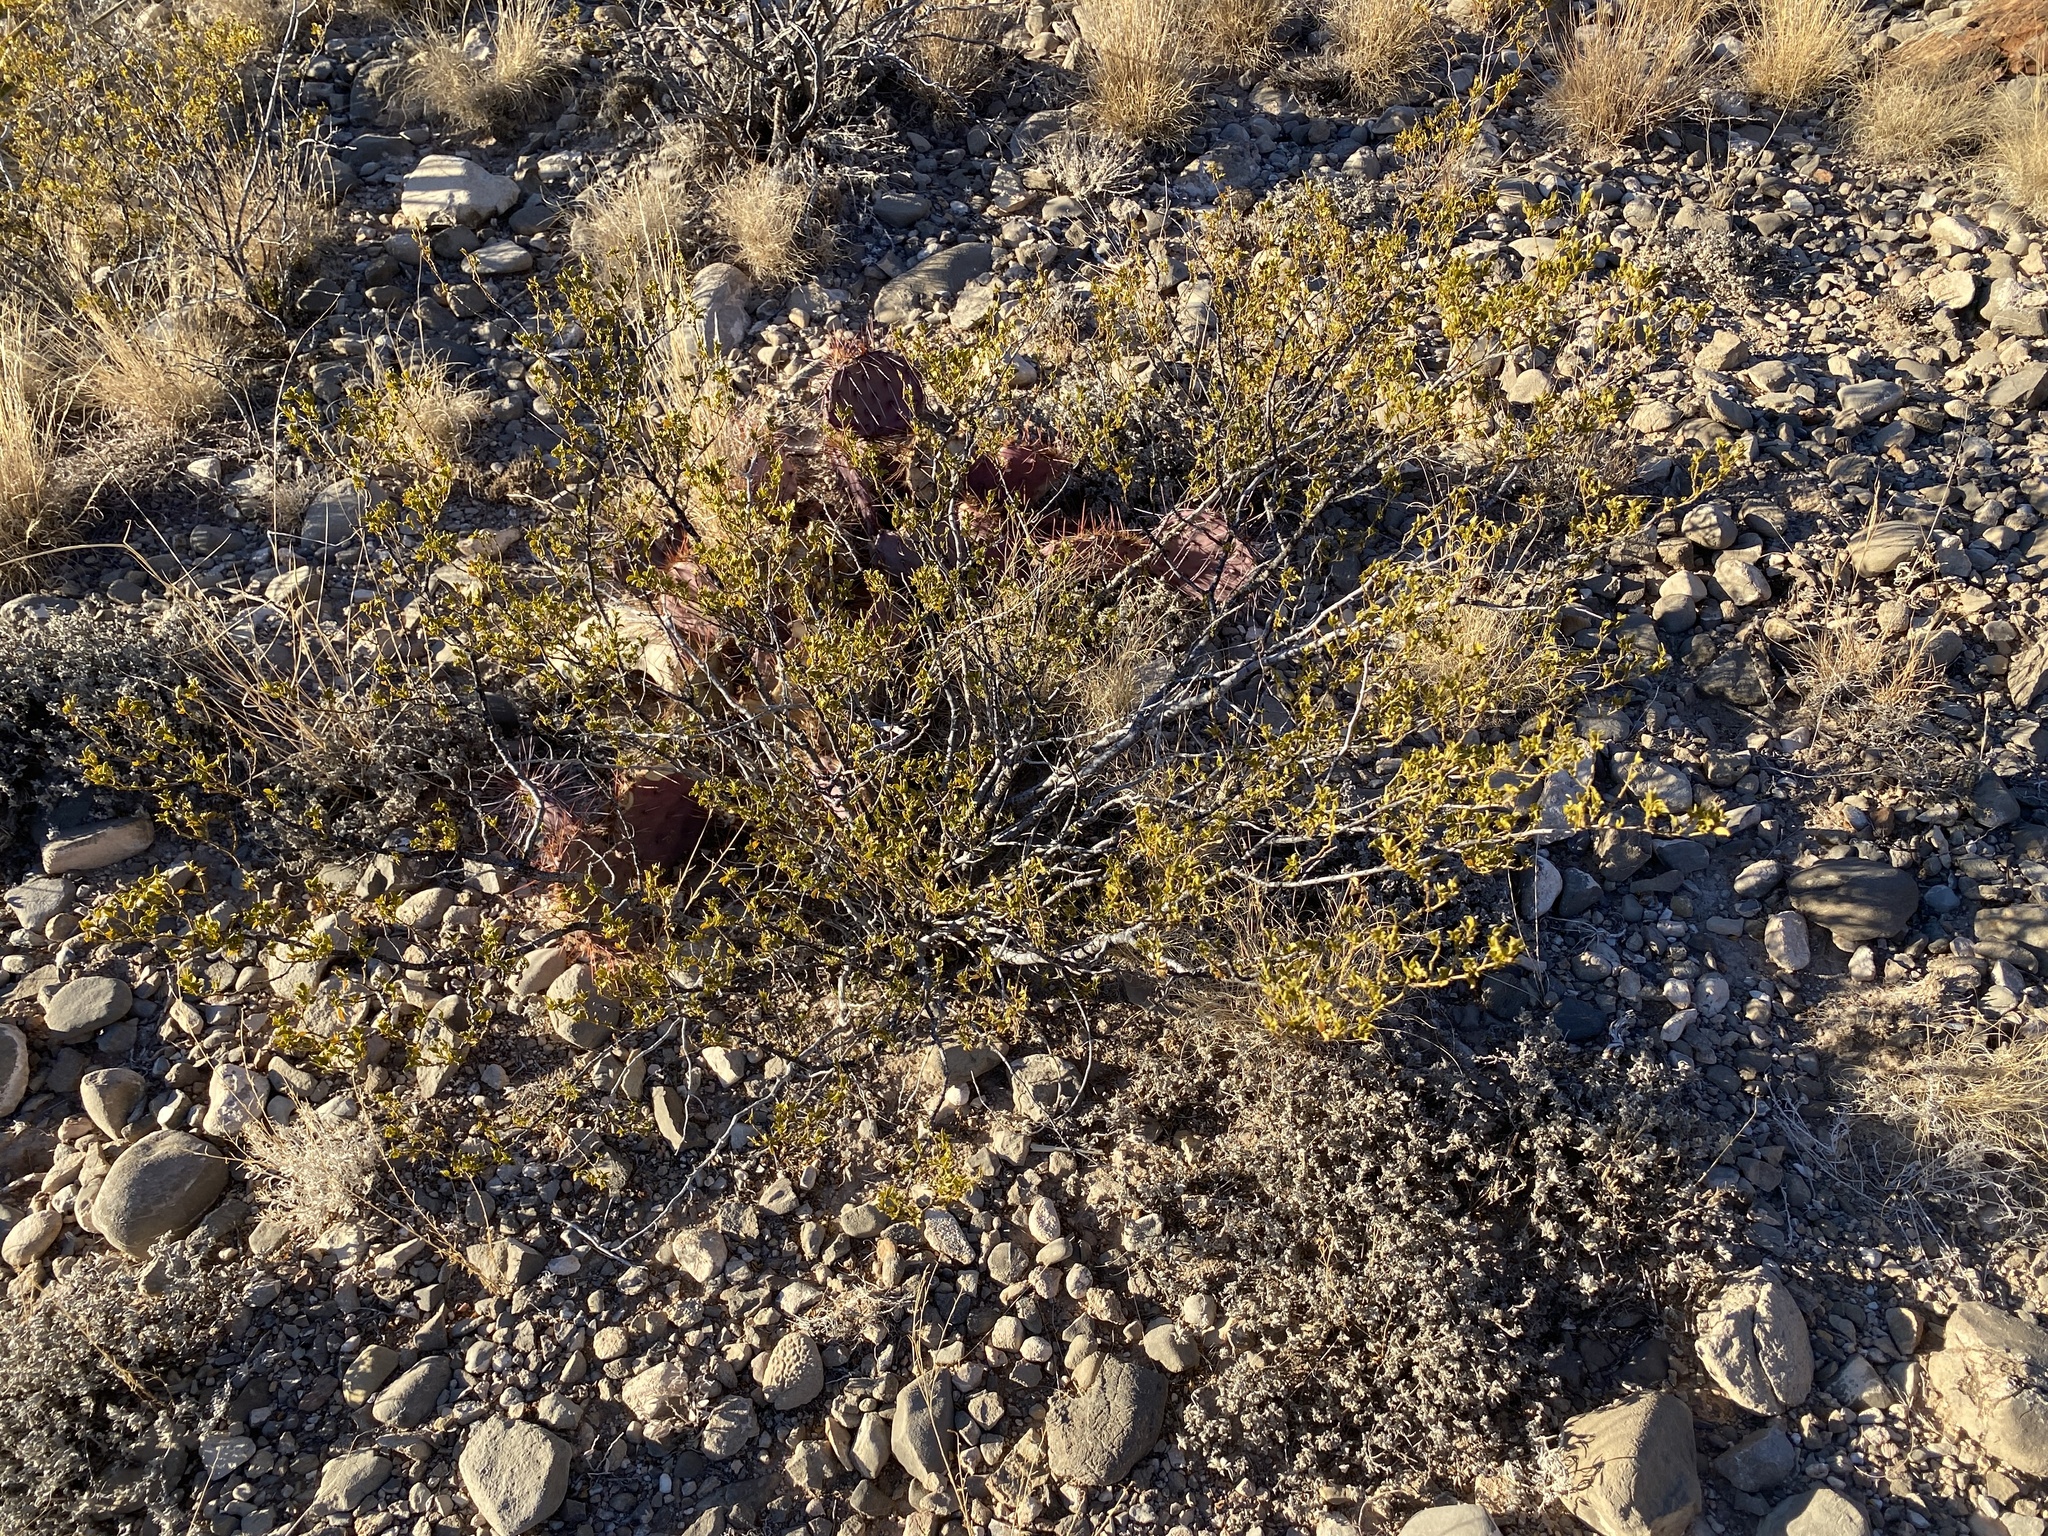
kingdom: Plantae
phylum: Tracheophyta
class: Magnoliopsida
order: Zygophyllales
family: Zygophyllaceae
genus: Larrea
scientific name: Larrea tridentata
